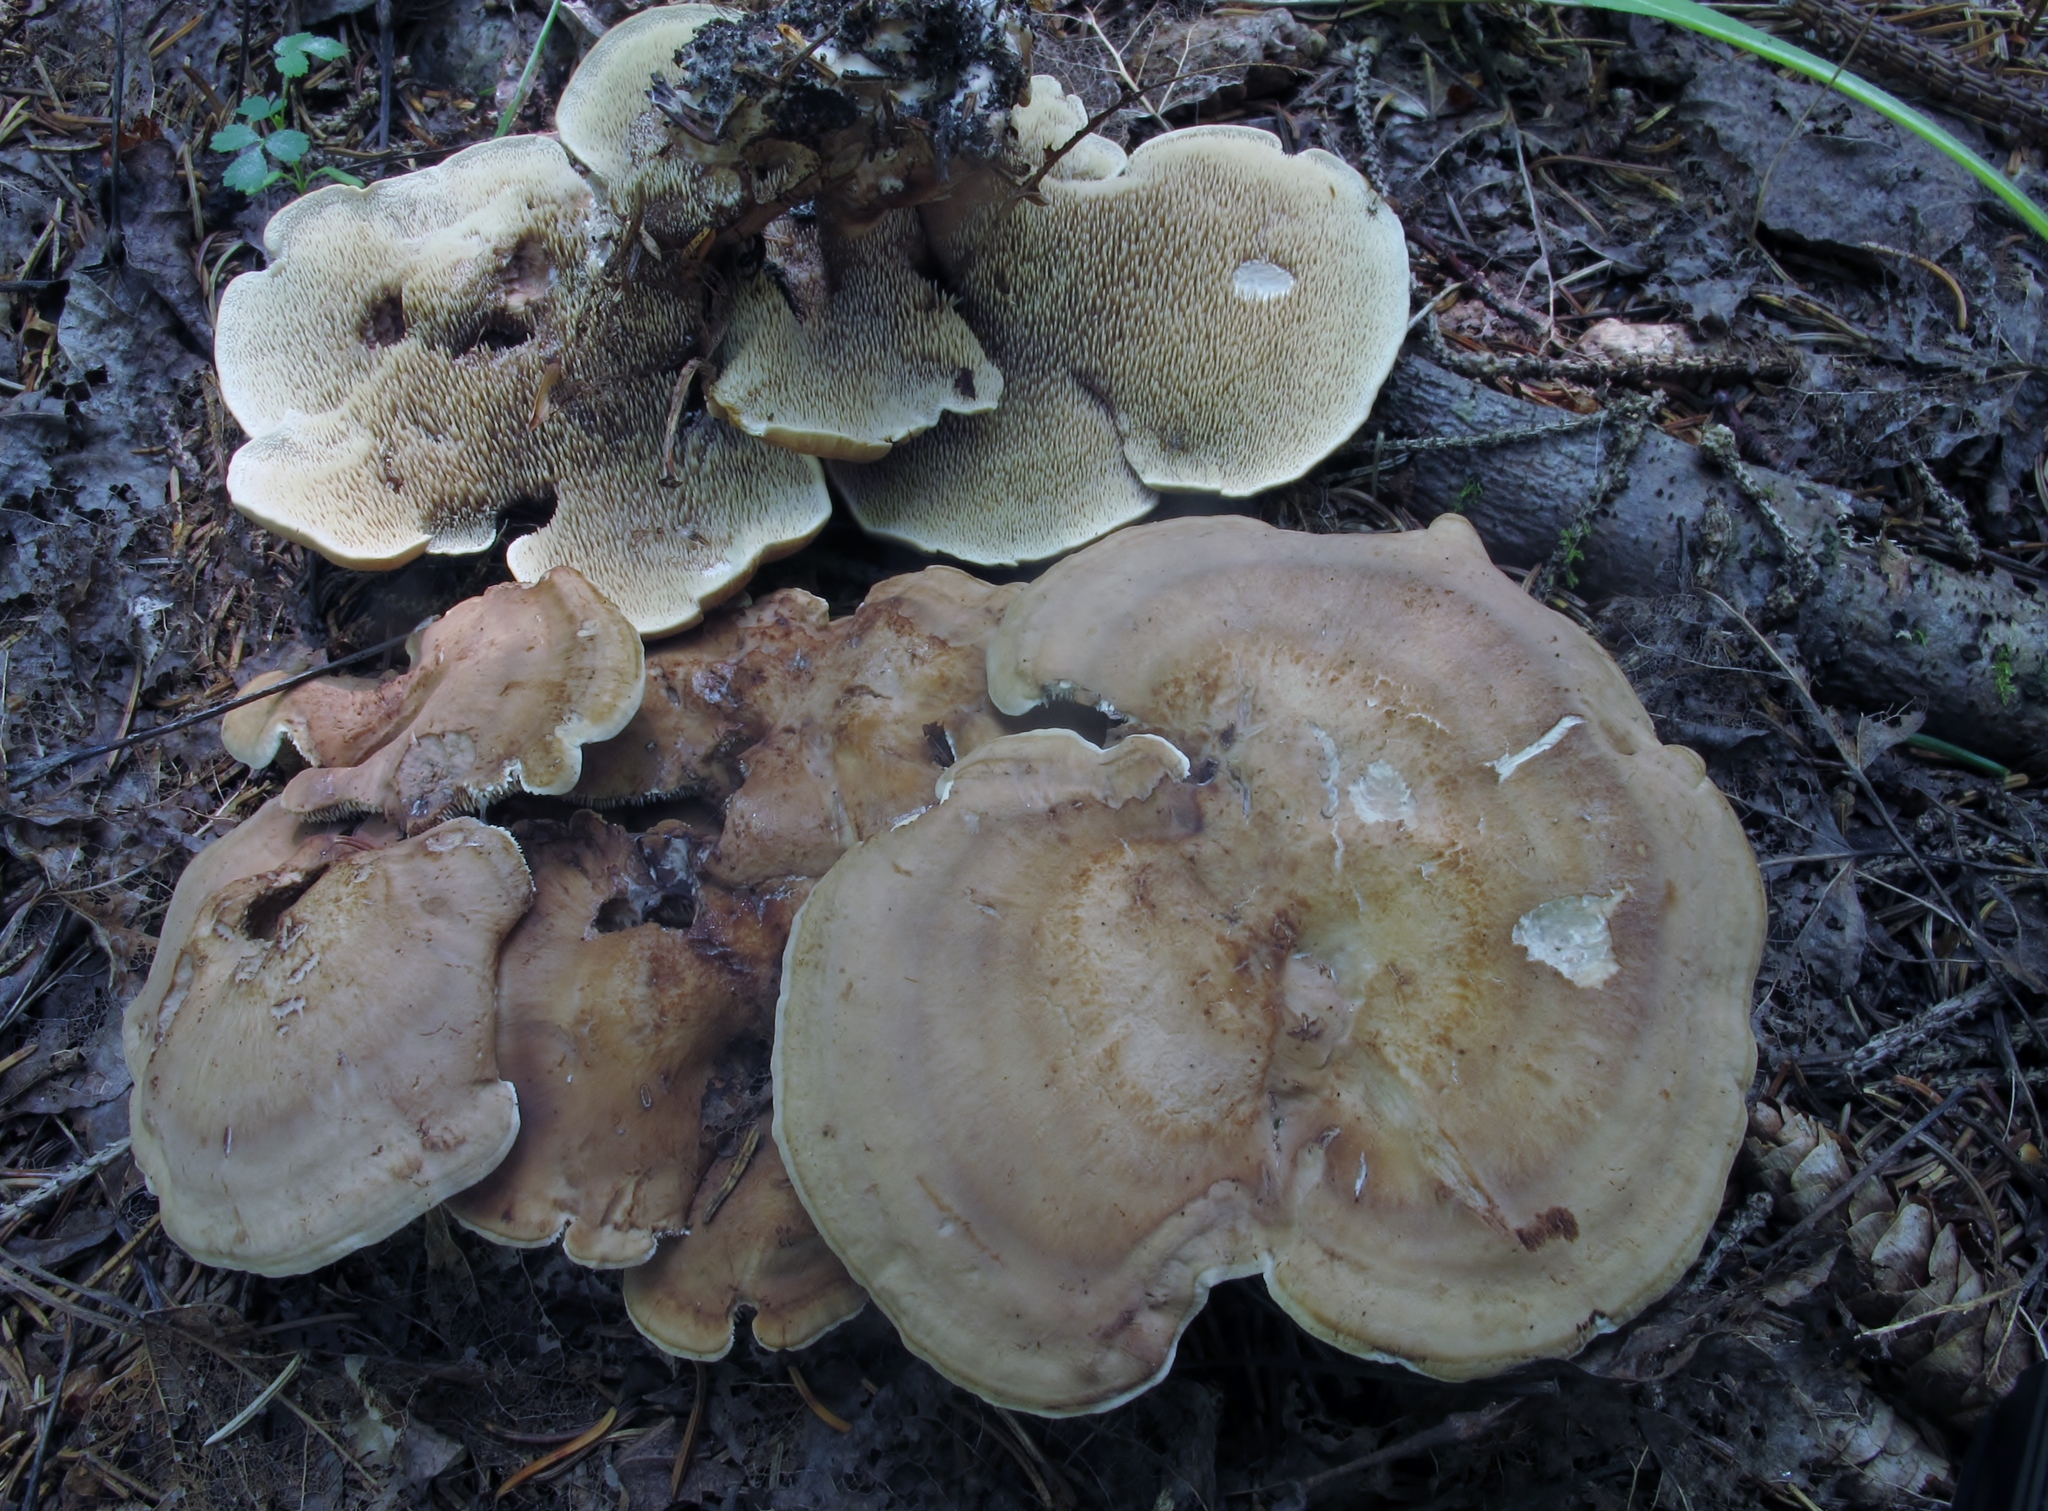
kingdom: Fungi
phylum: Basidiomycota
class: Agaricomycetes
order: Thelephorales
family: Bankeraceae
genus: Sarcodon
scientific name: Sarcodon stereosarcinon
